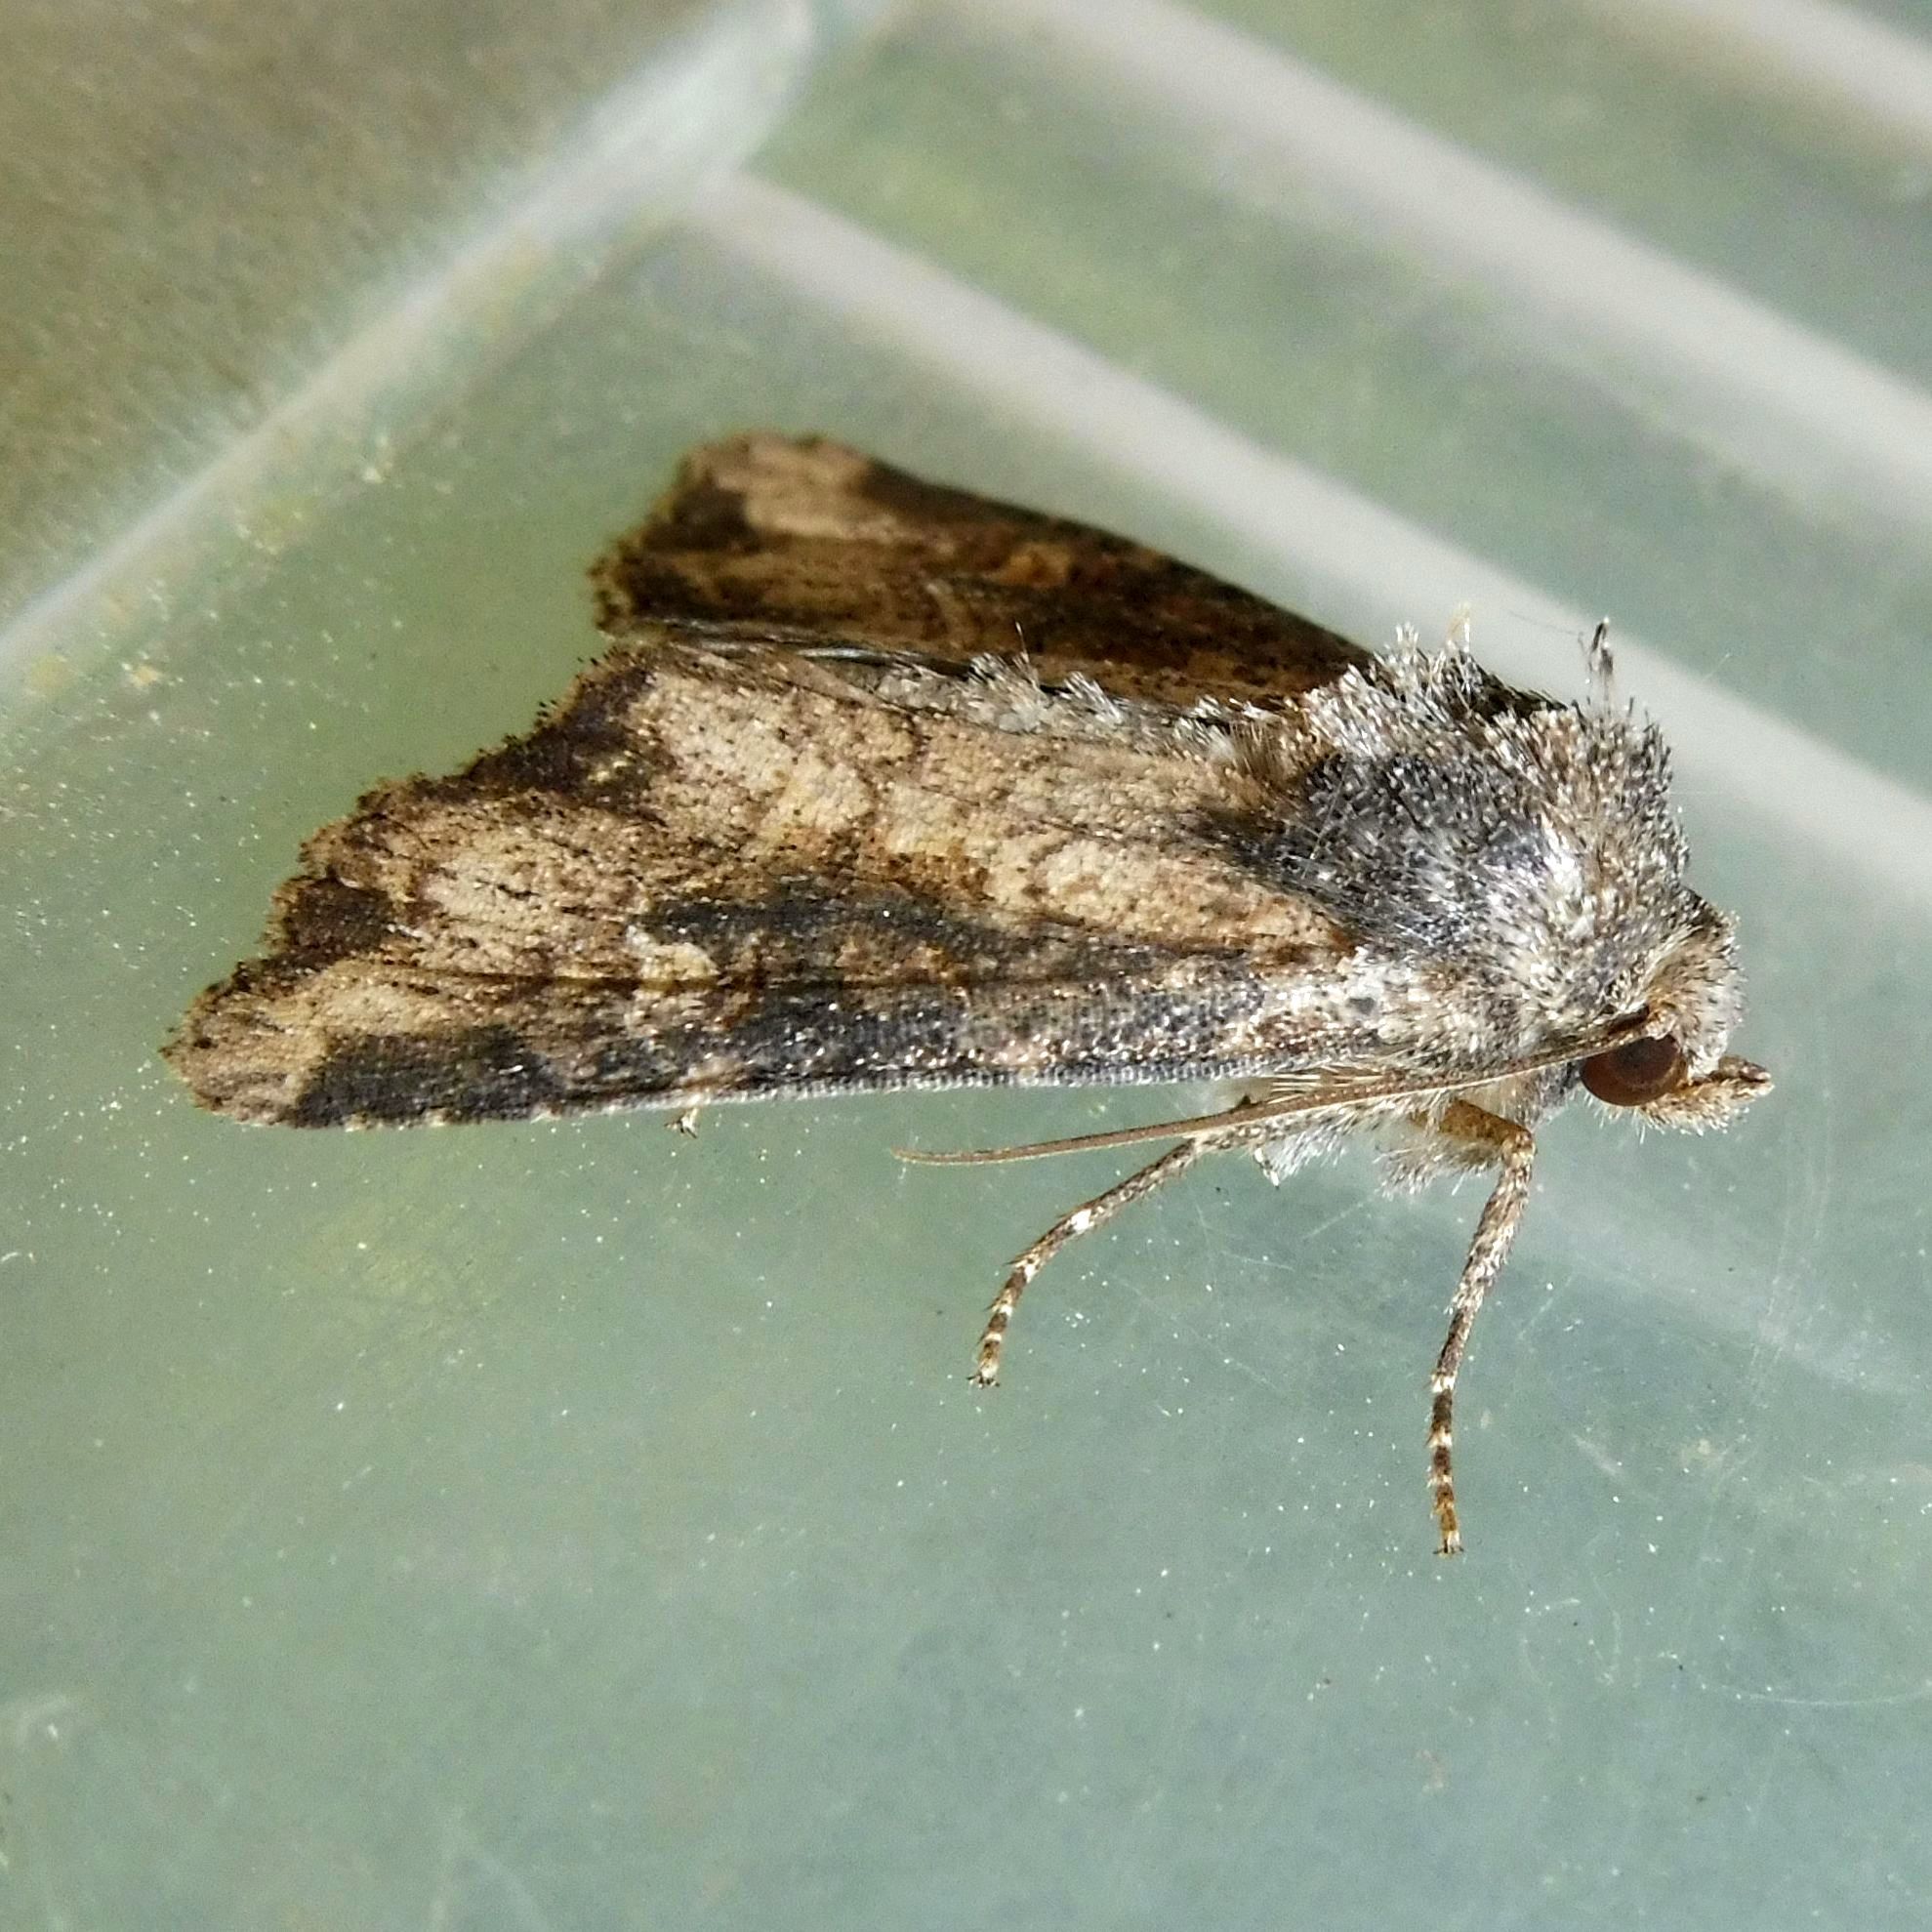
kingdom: Animalia
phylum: Arthropoda
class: Insecta
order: Lepidoptera
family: Noctuidae
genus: Mesapamea
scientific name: Mesapamea
